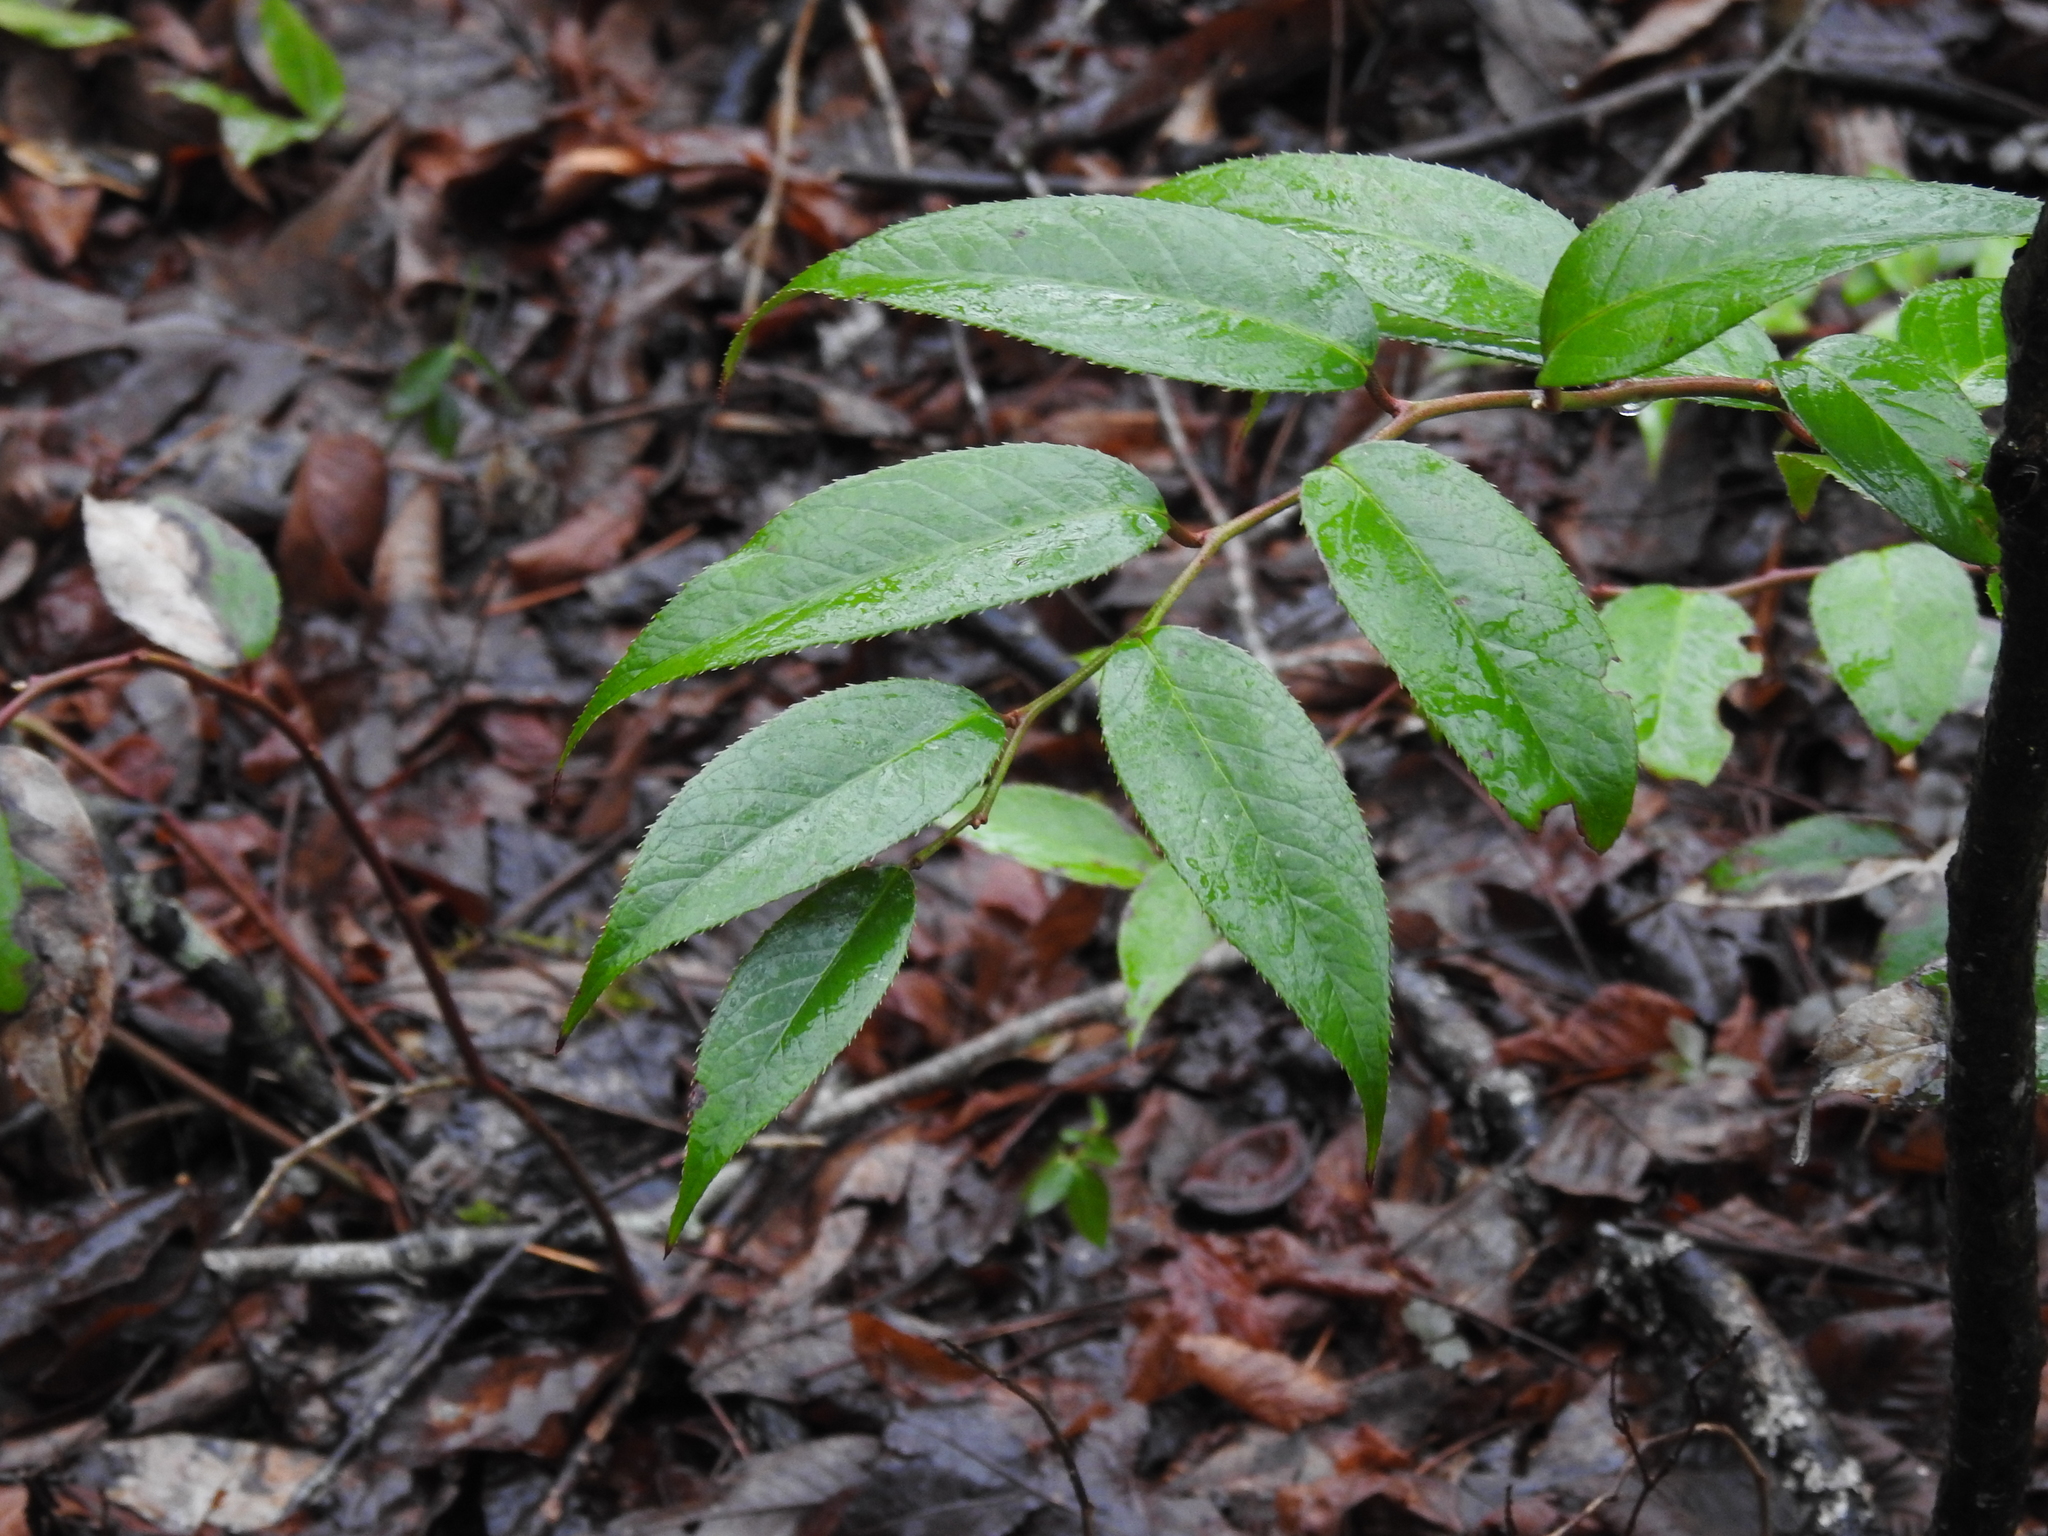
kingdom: Plantae
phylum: Tracheophyta
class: Magnoliopsida
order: Ericales
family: Ericaceae
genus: Leucothoe
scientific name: Leucothoe fontanesiana
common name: Fetterbush
